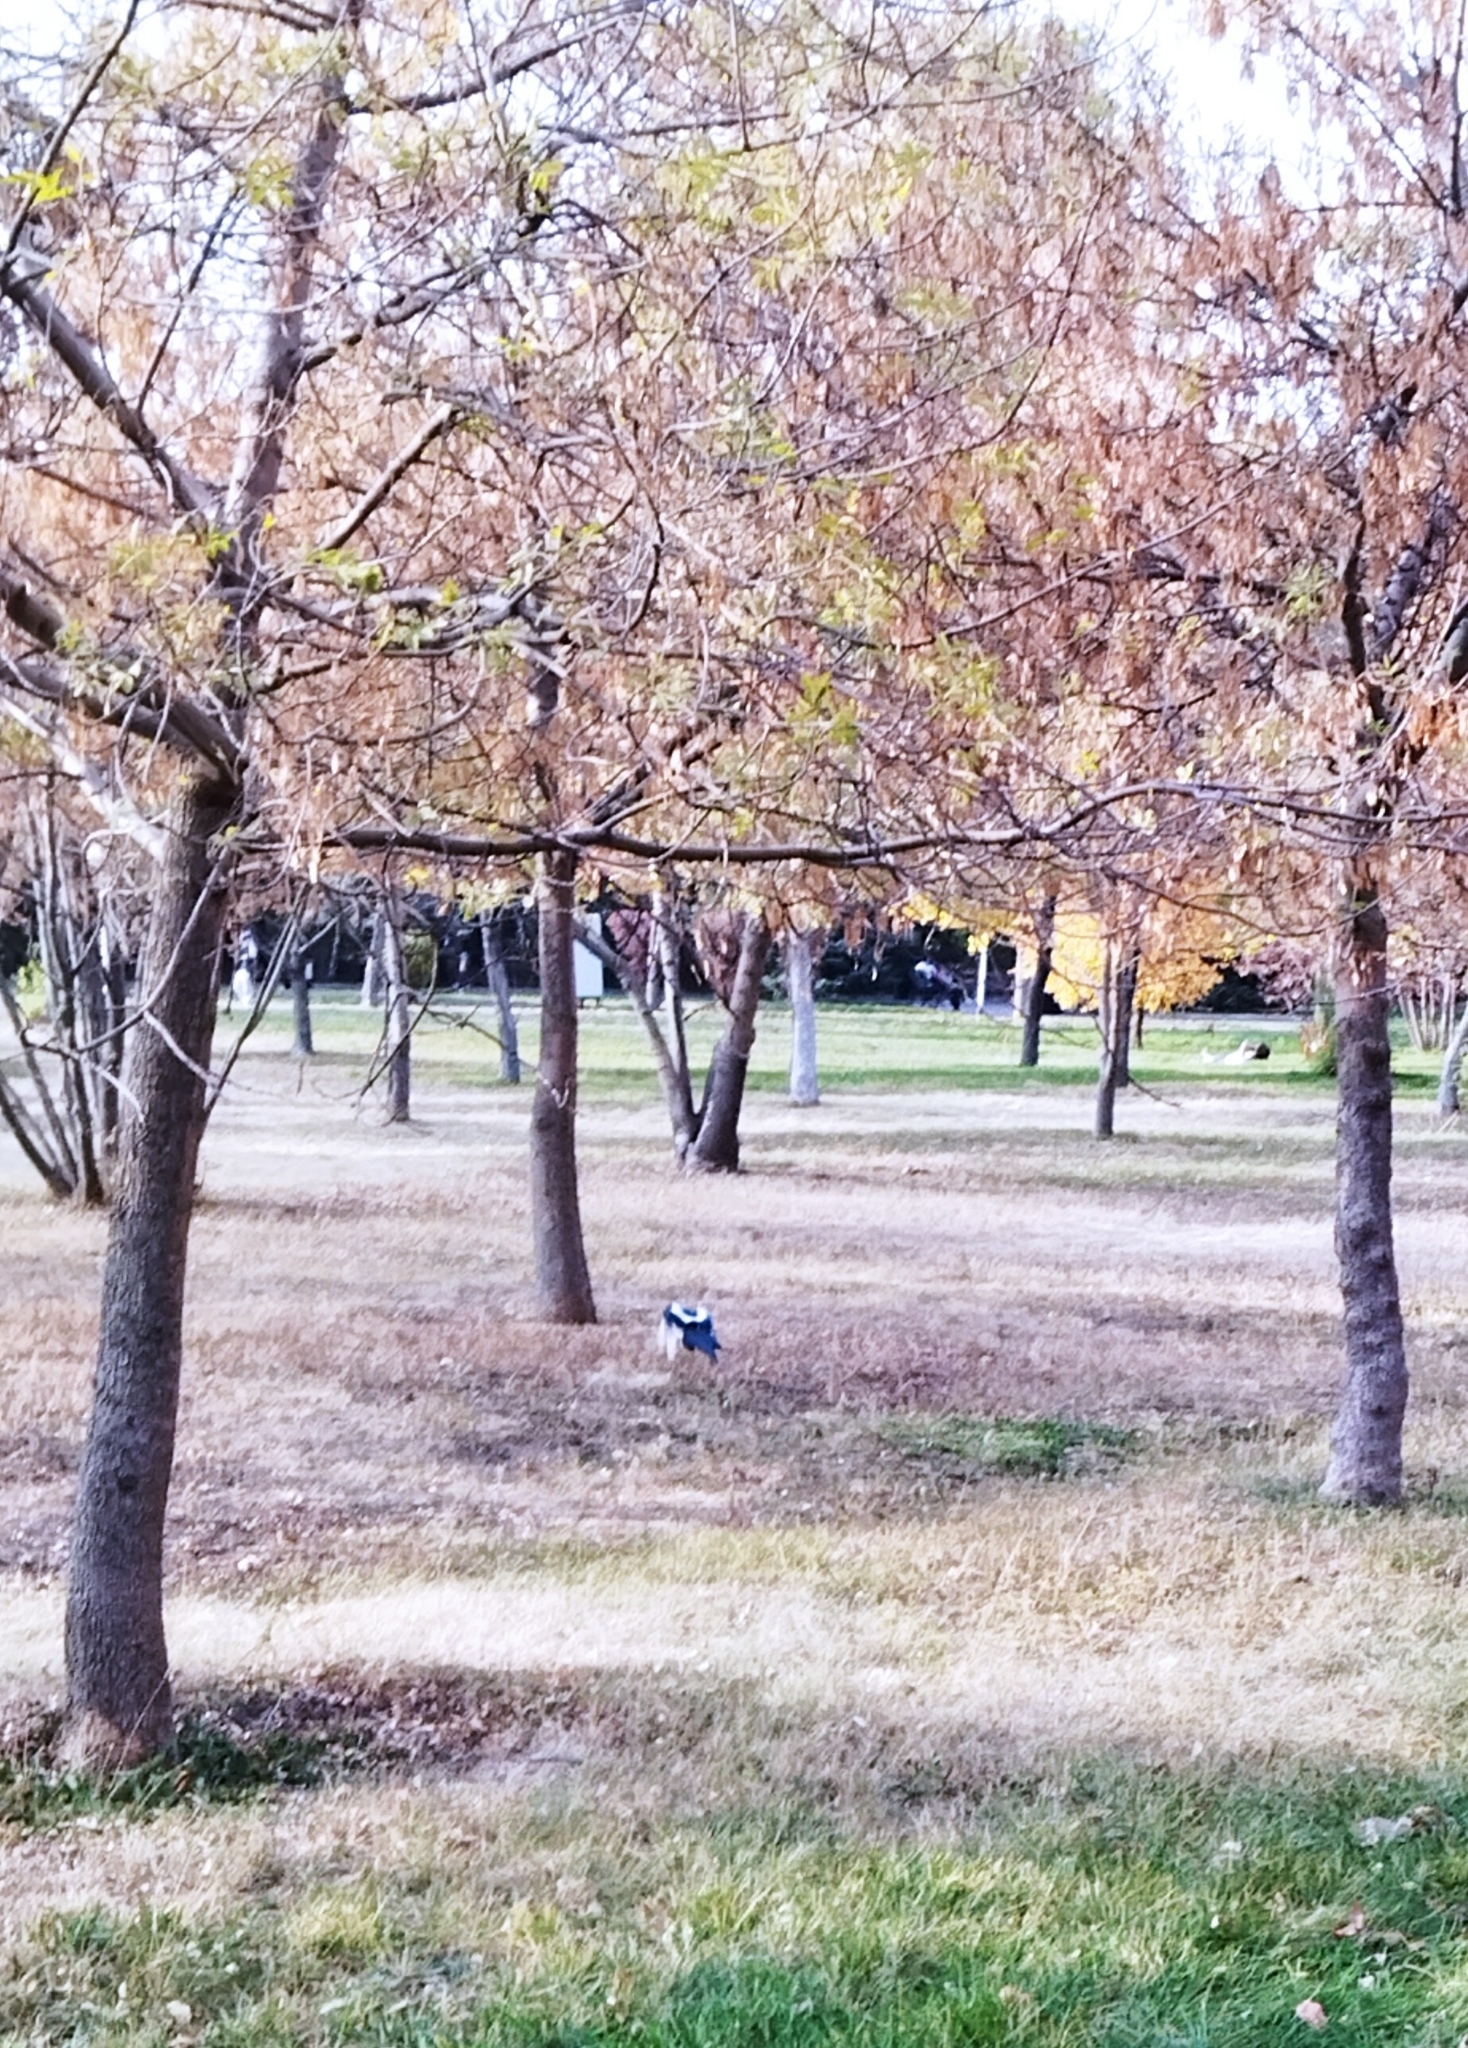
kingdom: Animalia
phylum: Chordata
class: Aves
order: Passeriformes
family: Corvidae
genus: Pica
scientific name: Pica pica
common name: Eurasian magpie
